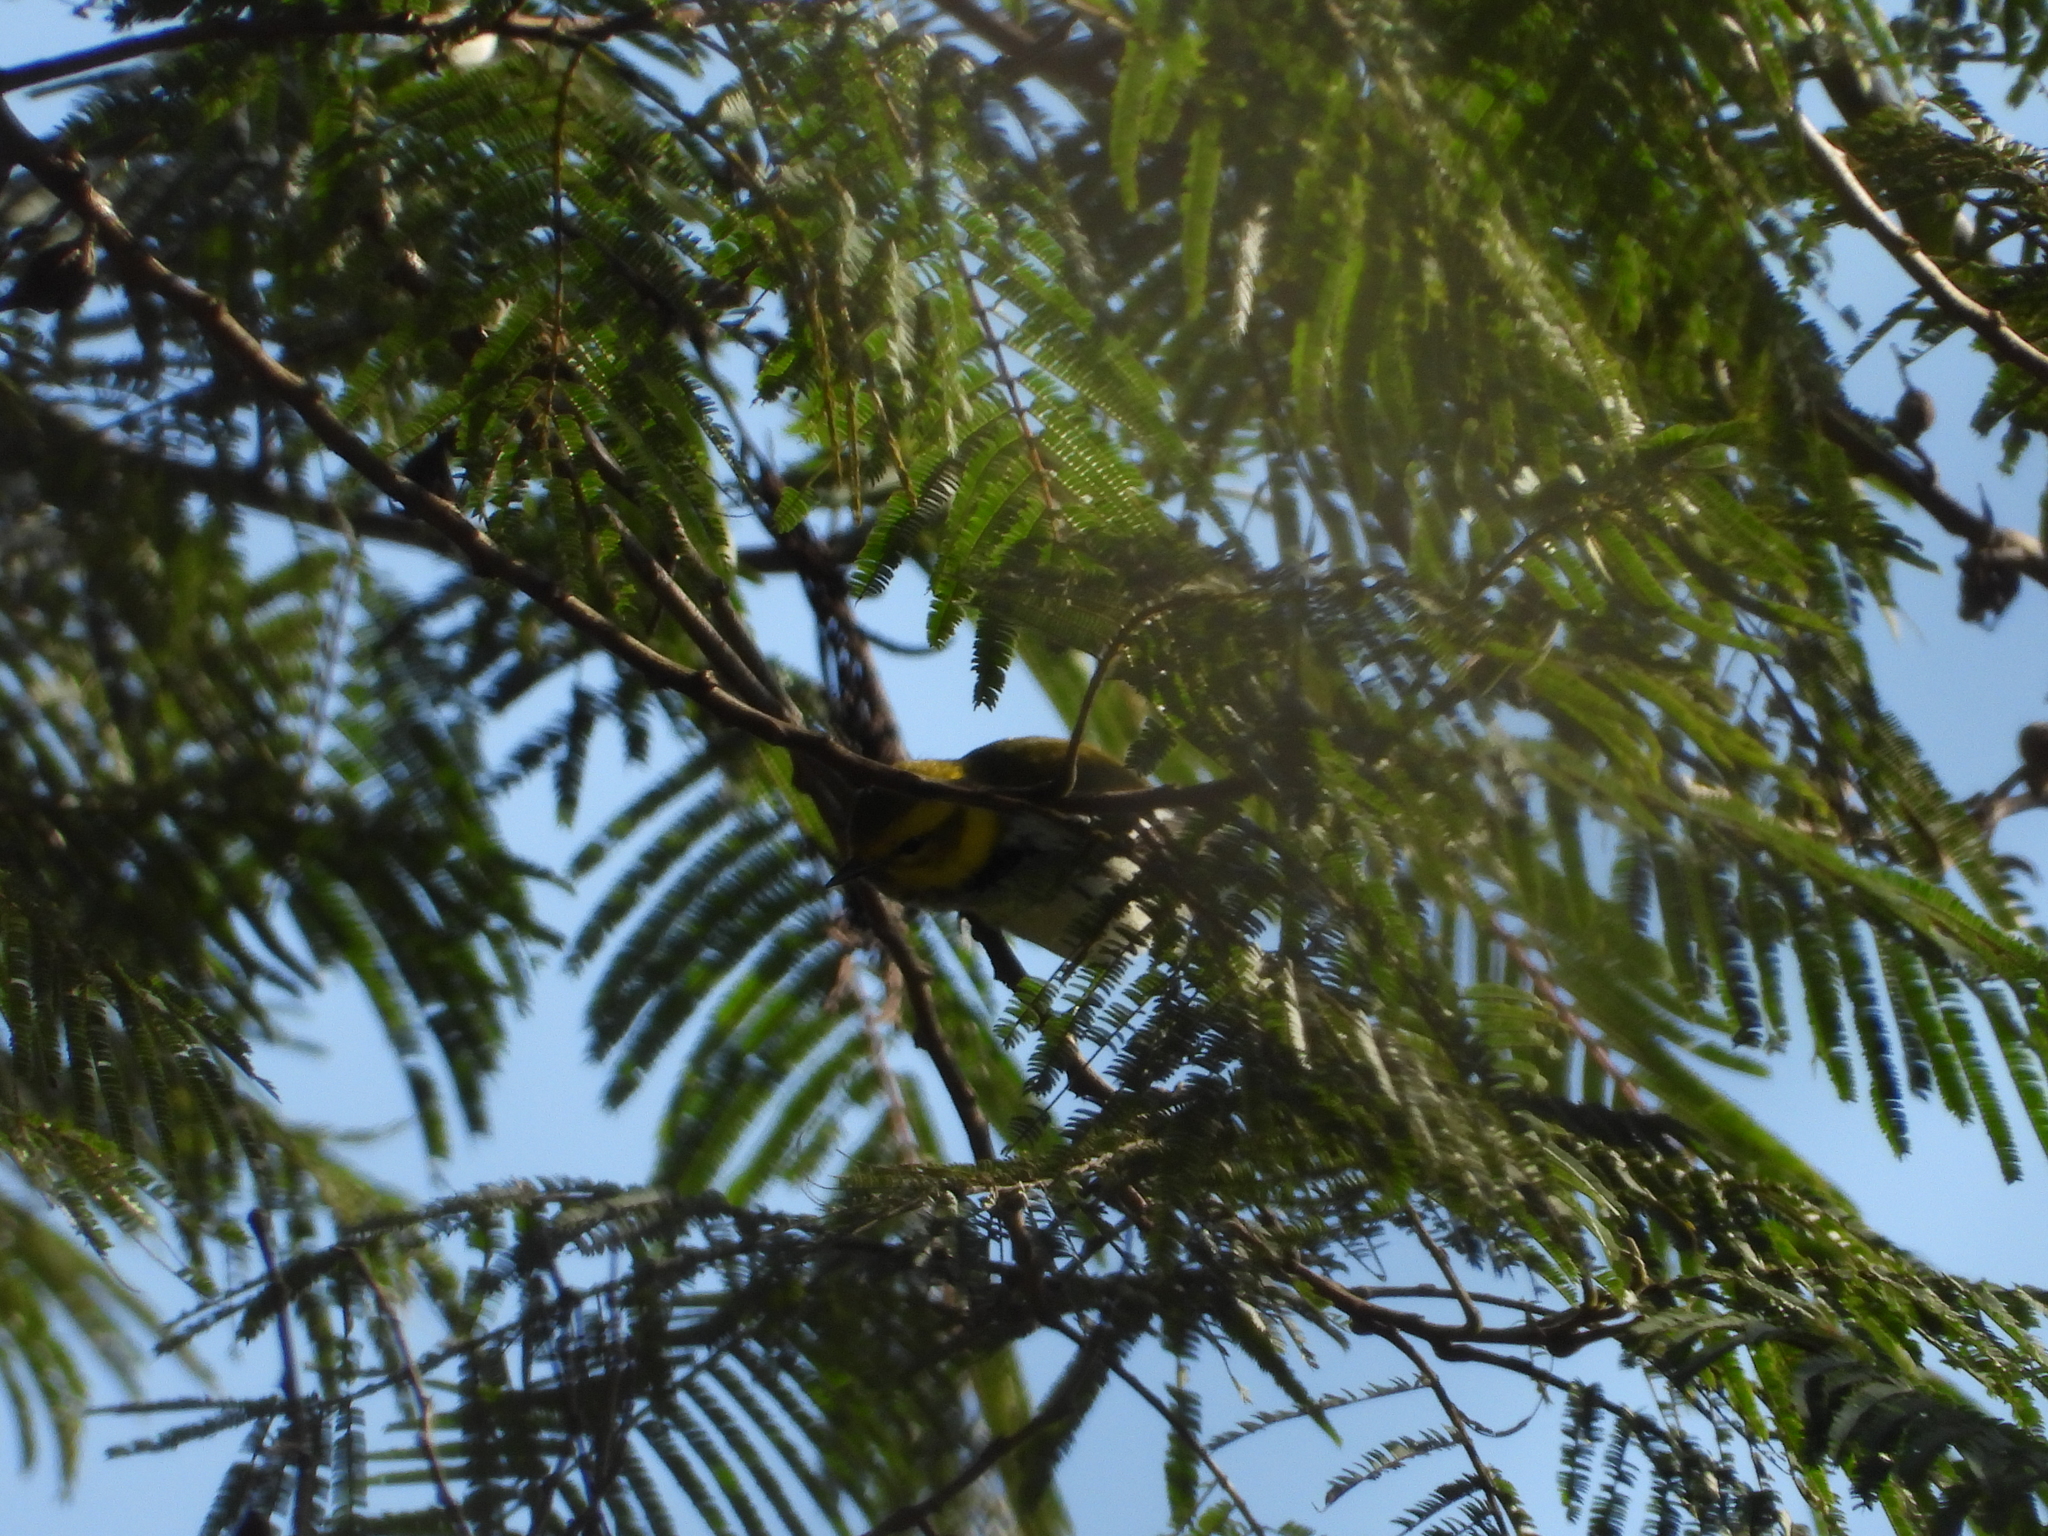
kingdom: Animalia
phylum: Chordata
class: Aves
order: Passeriformes
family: Parulidae
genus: Setophaga
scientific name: Setophaga virens
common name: Black-throated green warbler
